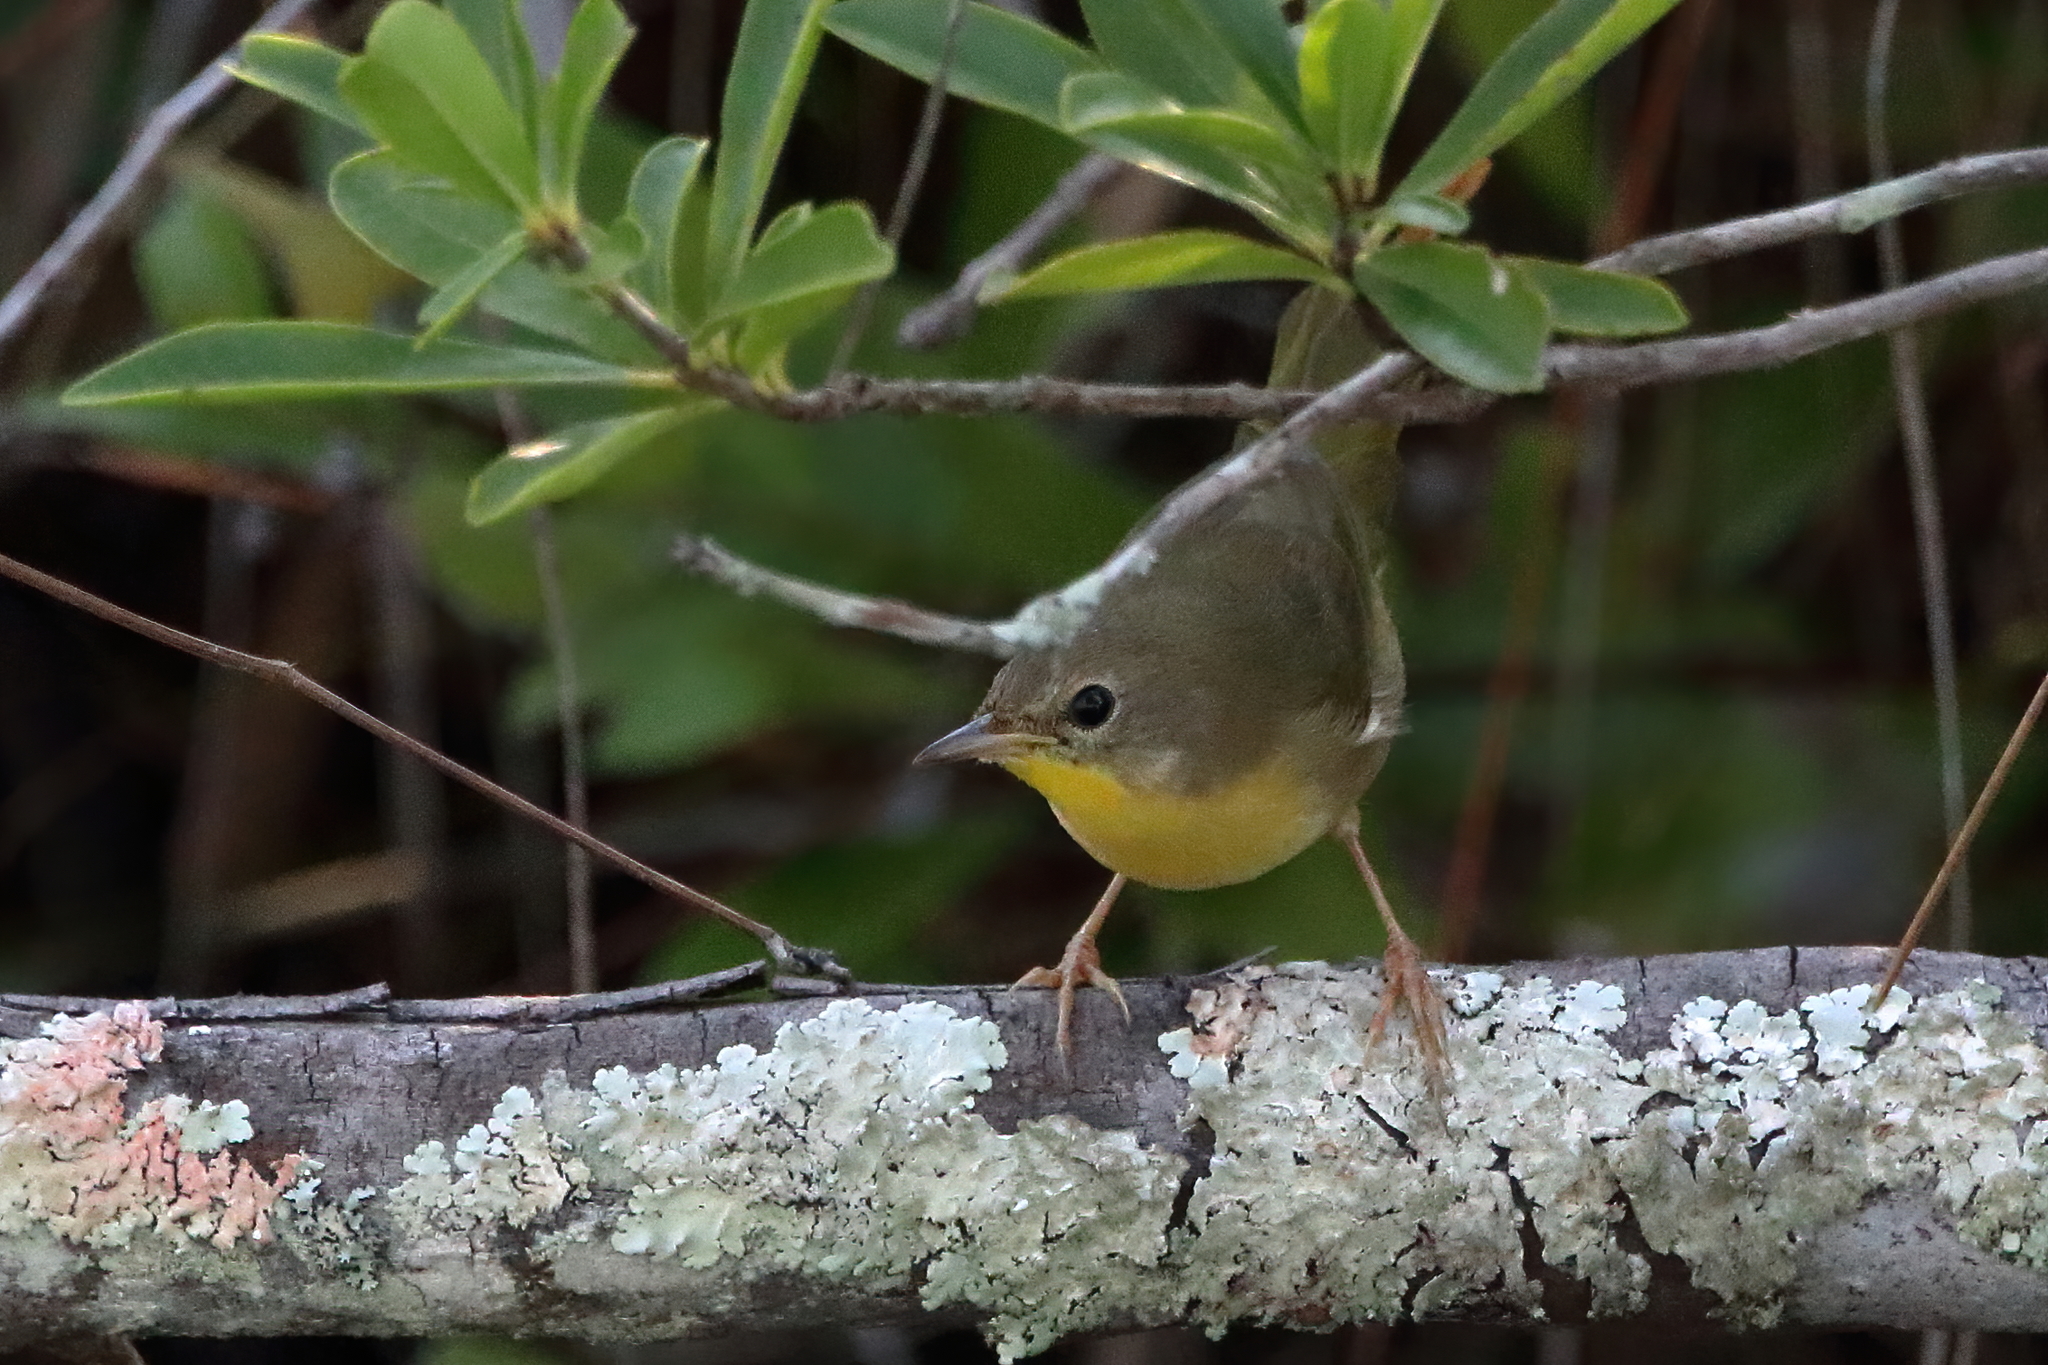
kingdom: Animalia
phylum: Chordata
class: Aves
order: Passeriformes
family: Parulidae
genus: Geothlypis
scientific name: Geothlypis trichas
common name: Common yellowthroat
